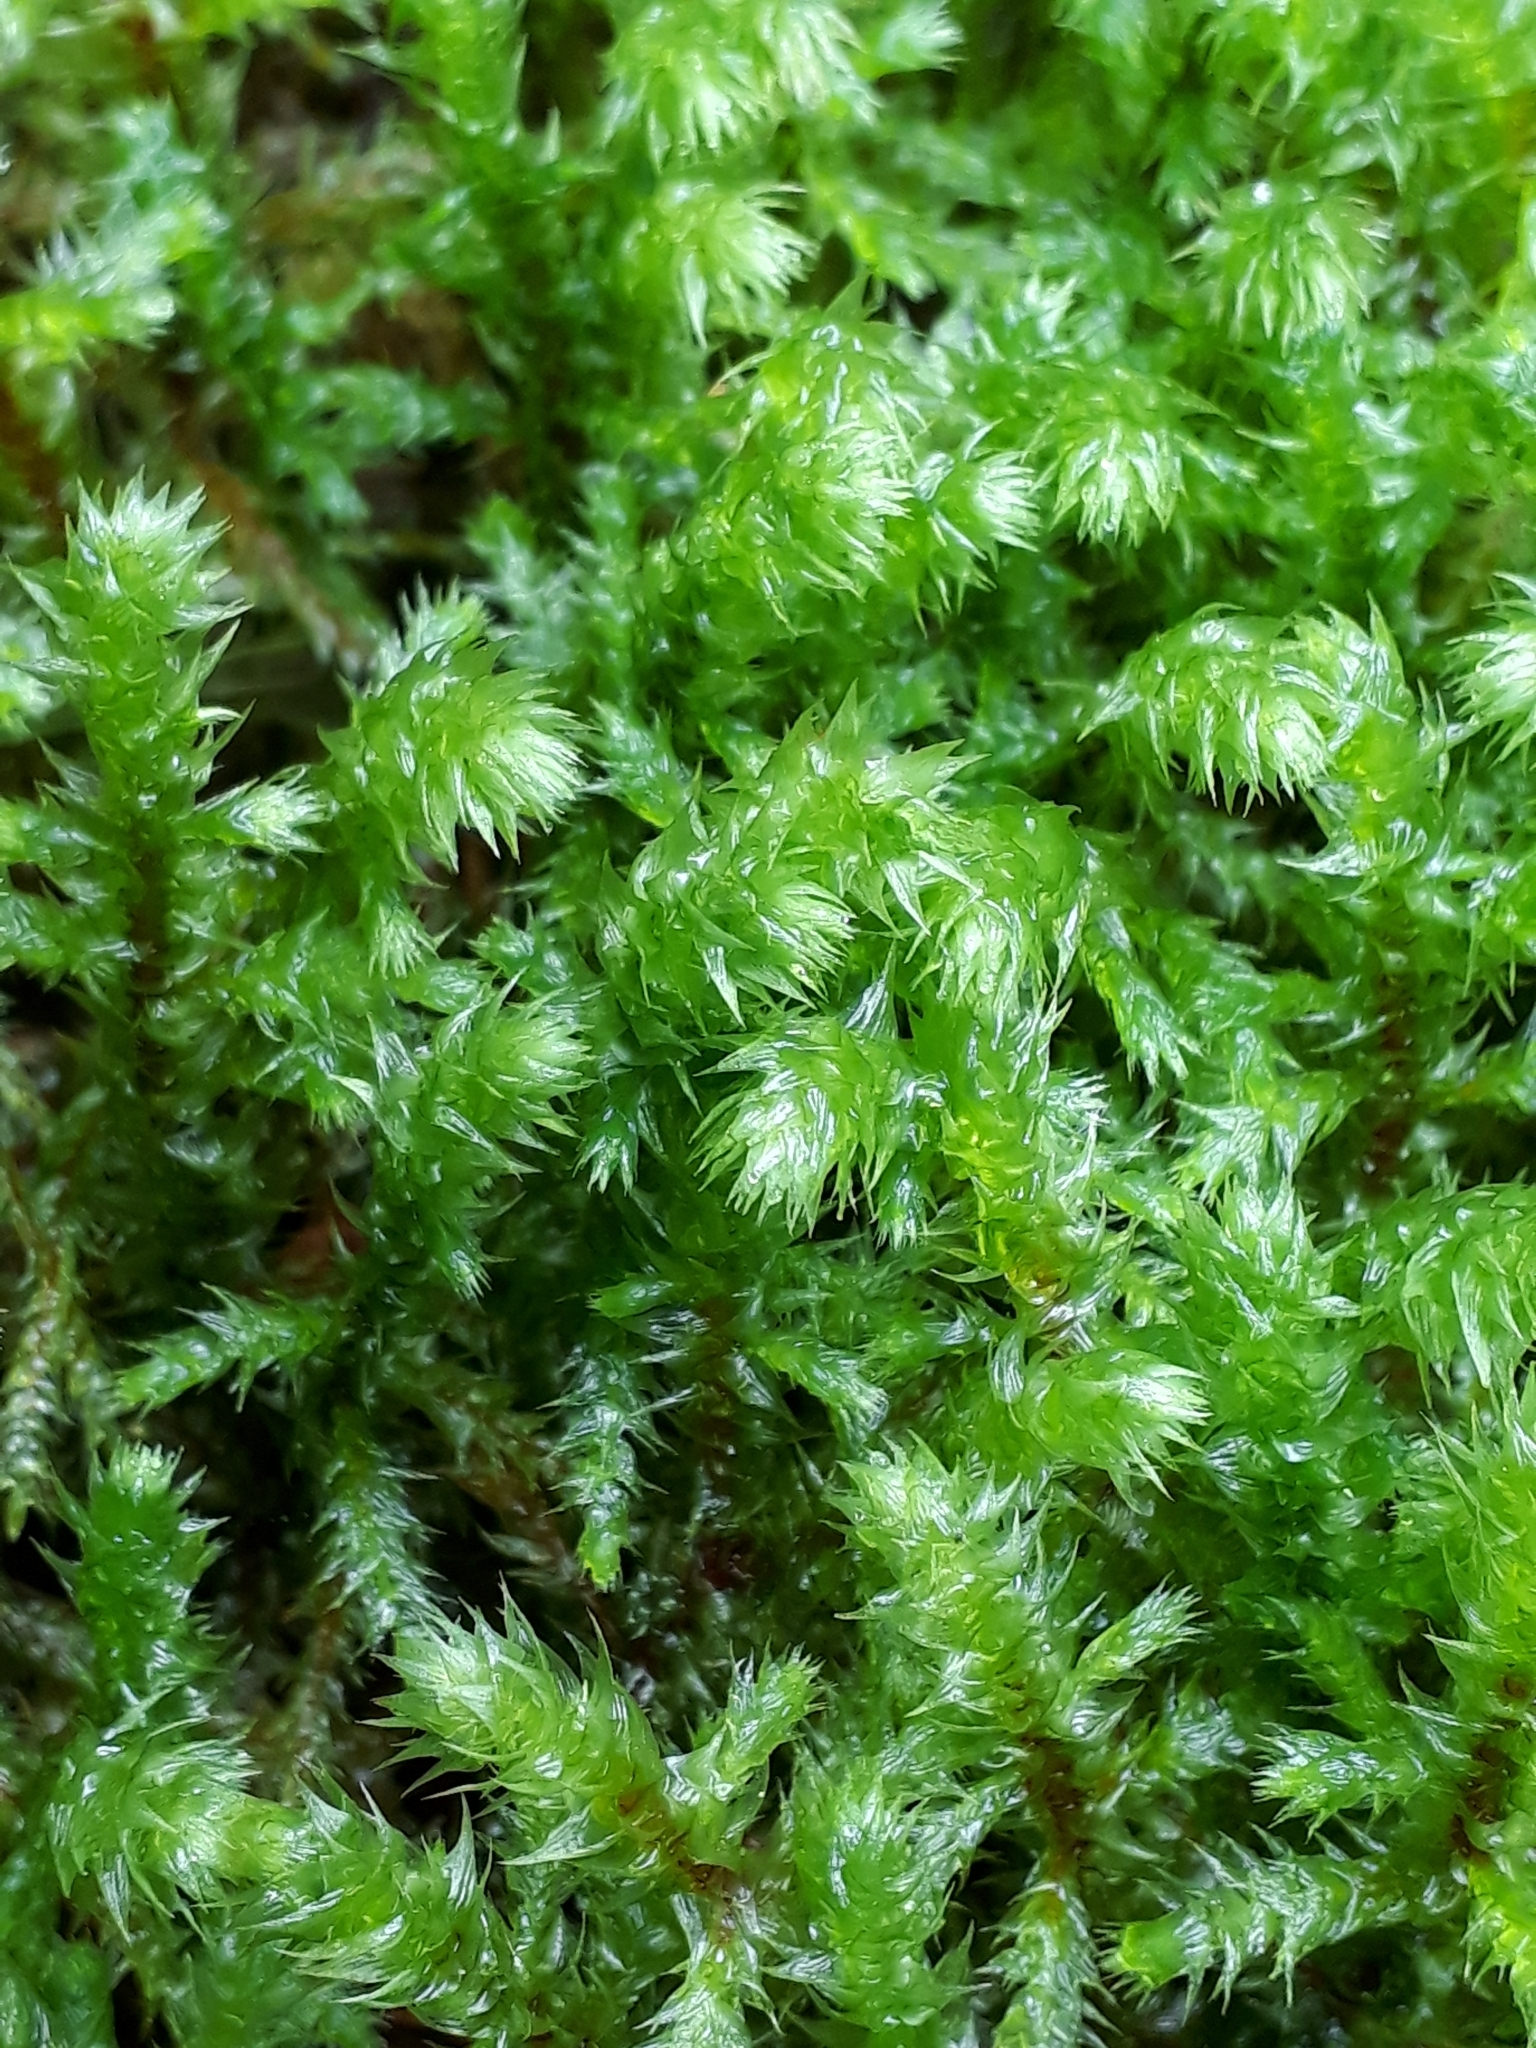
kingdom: Plantae
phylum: Bryophyta
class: Bryopsida
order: Hypnales
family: Hylocomiaceae
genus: Hylocomiadelphus
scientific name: Hylocomiadelphus triquetrus
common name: Rough goose neck moss
